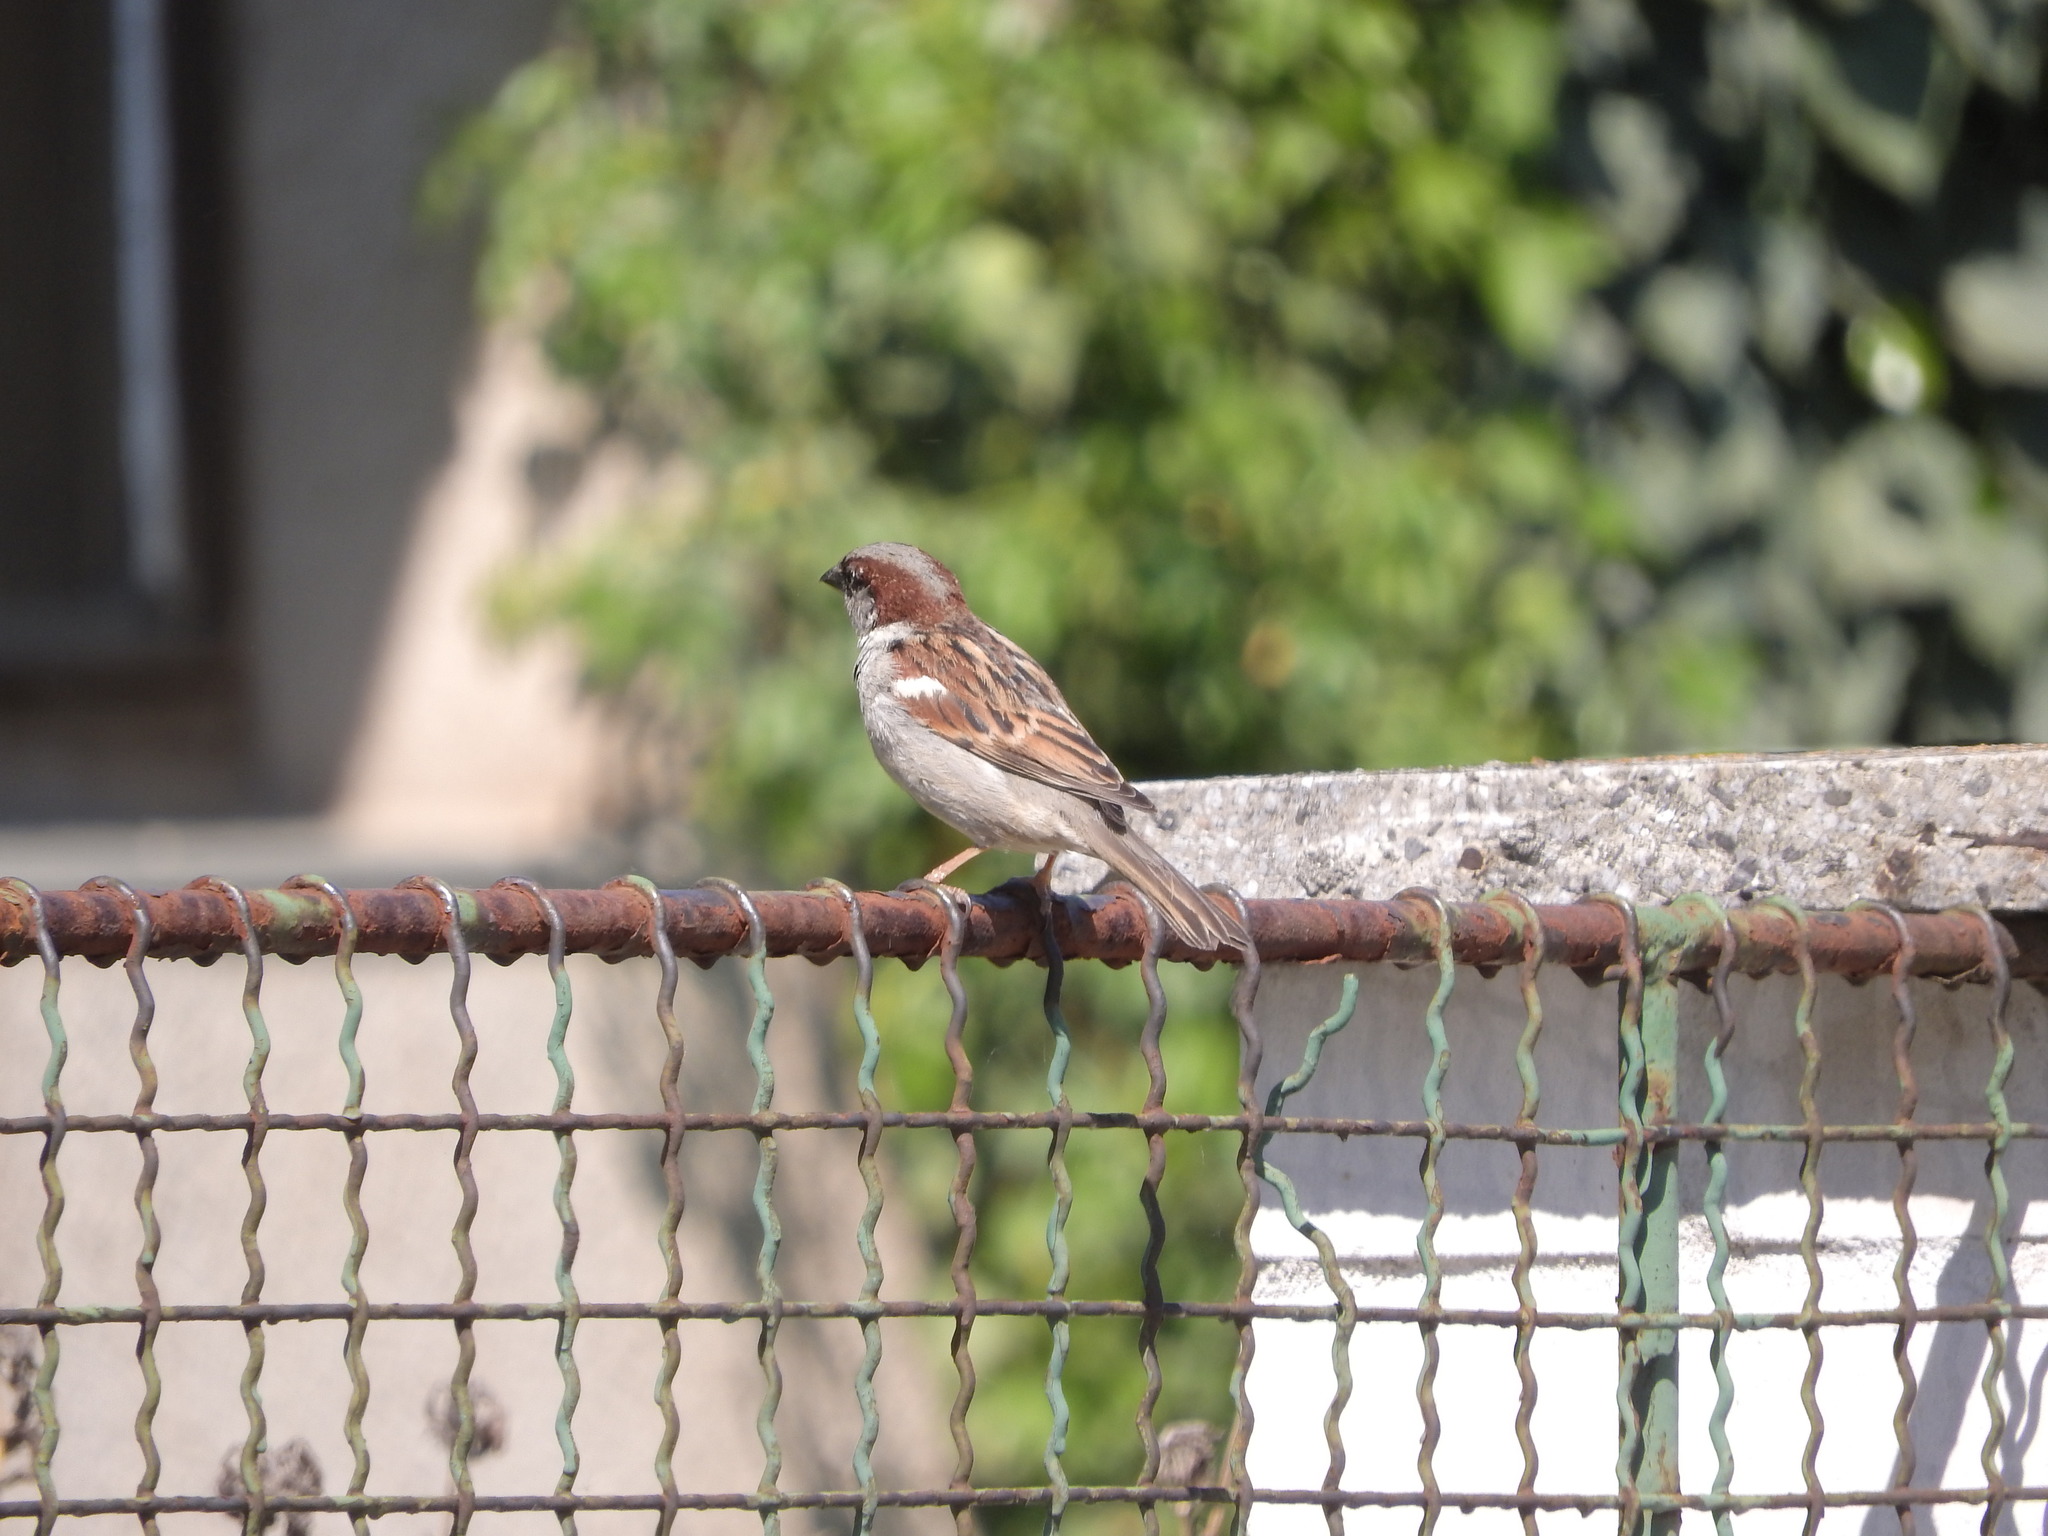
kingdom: Animalia
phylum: Chordata
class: Aves
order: Passeriformes
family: Passeridae
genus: Passer
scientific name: Passer domesticus
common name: House sparrow
